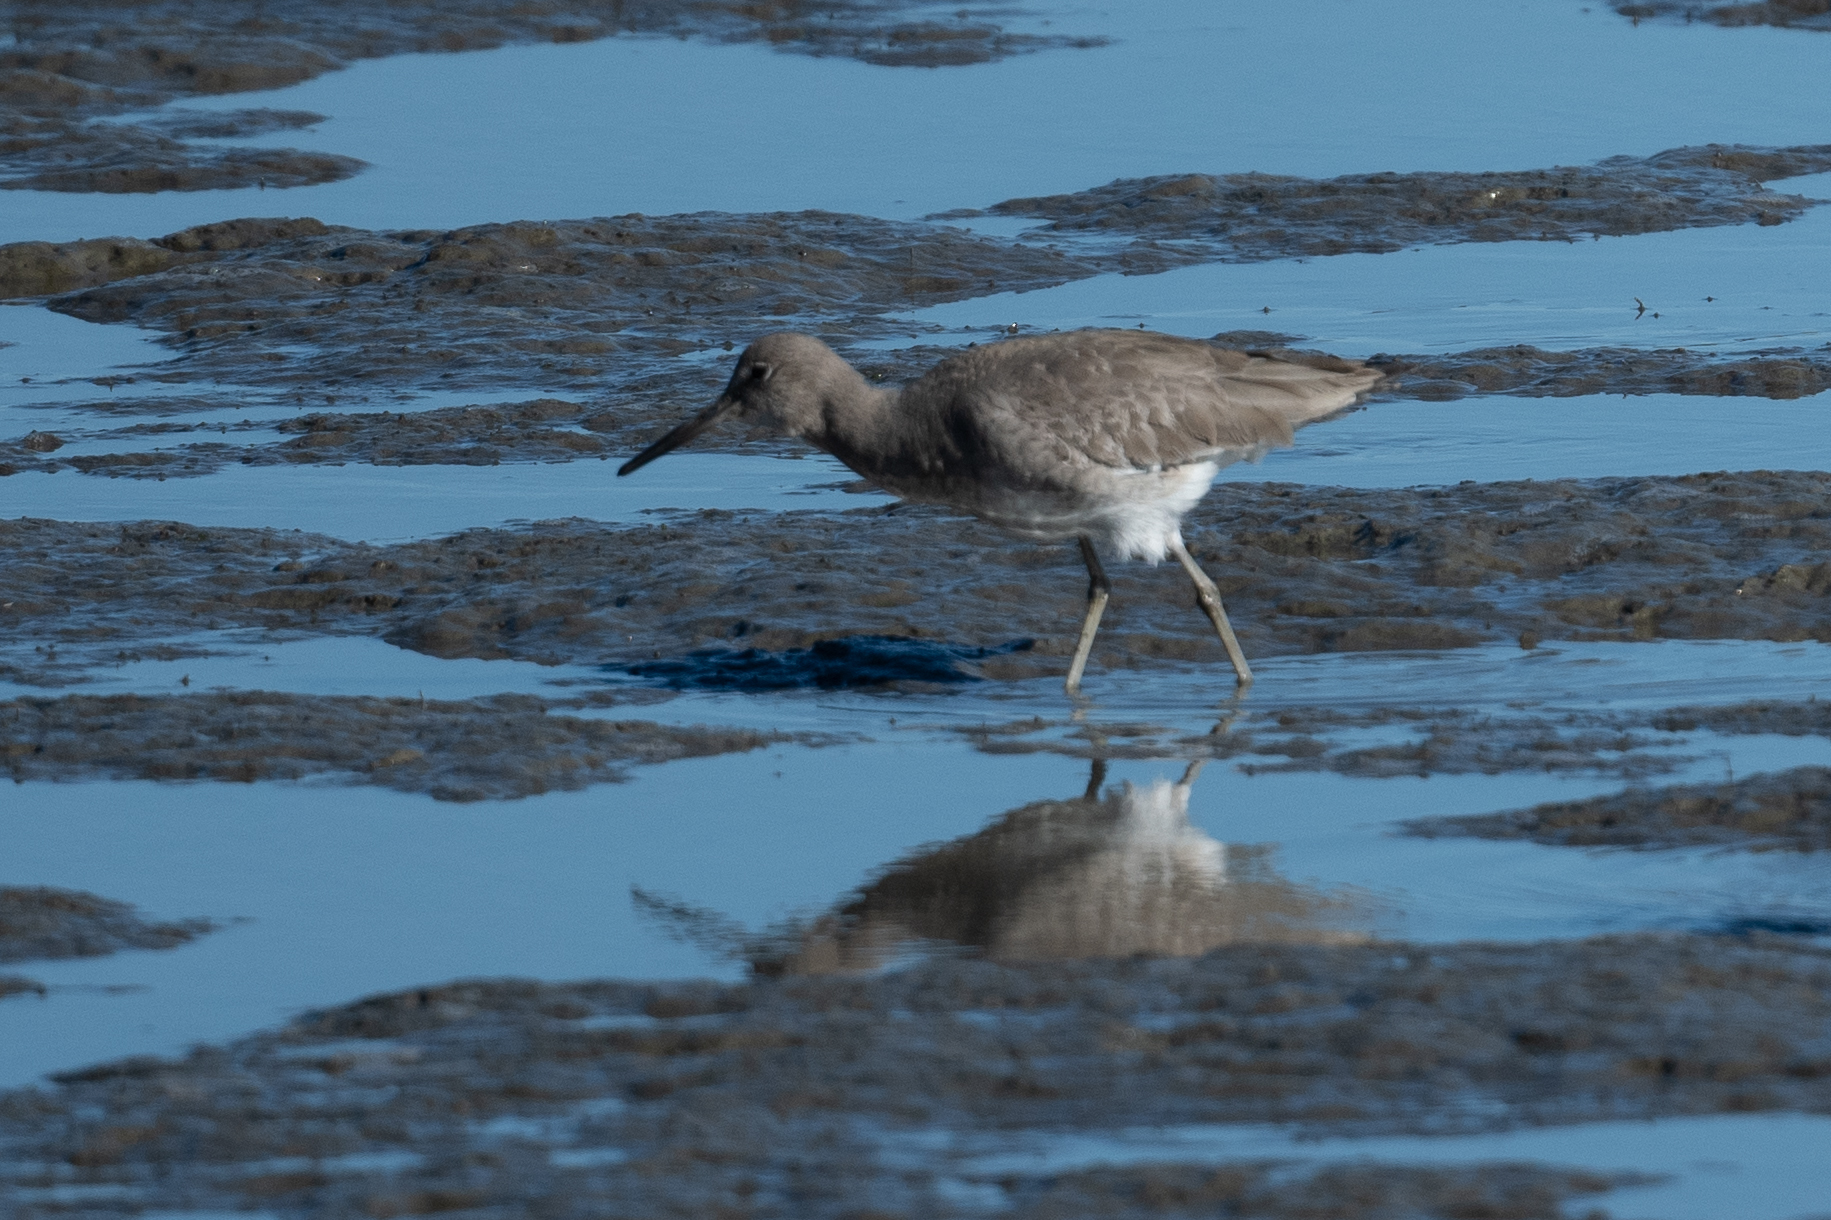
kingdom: Animalia
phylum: Chordata
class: Aves
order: Charadriiformes
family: Scolopacidae
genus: Tringa
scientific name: Tringa semipalmata
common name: Willet
